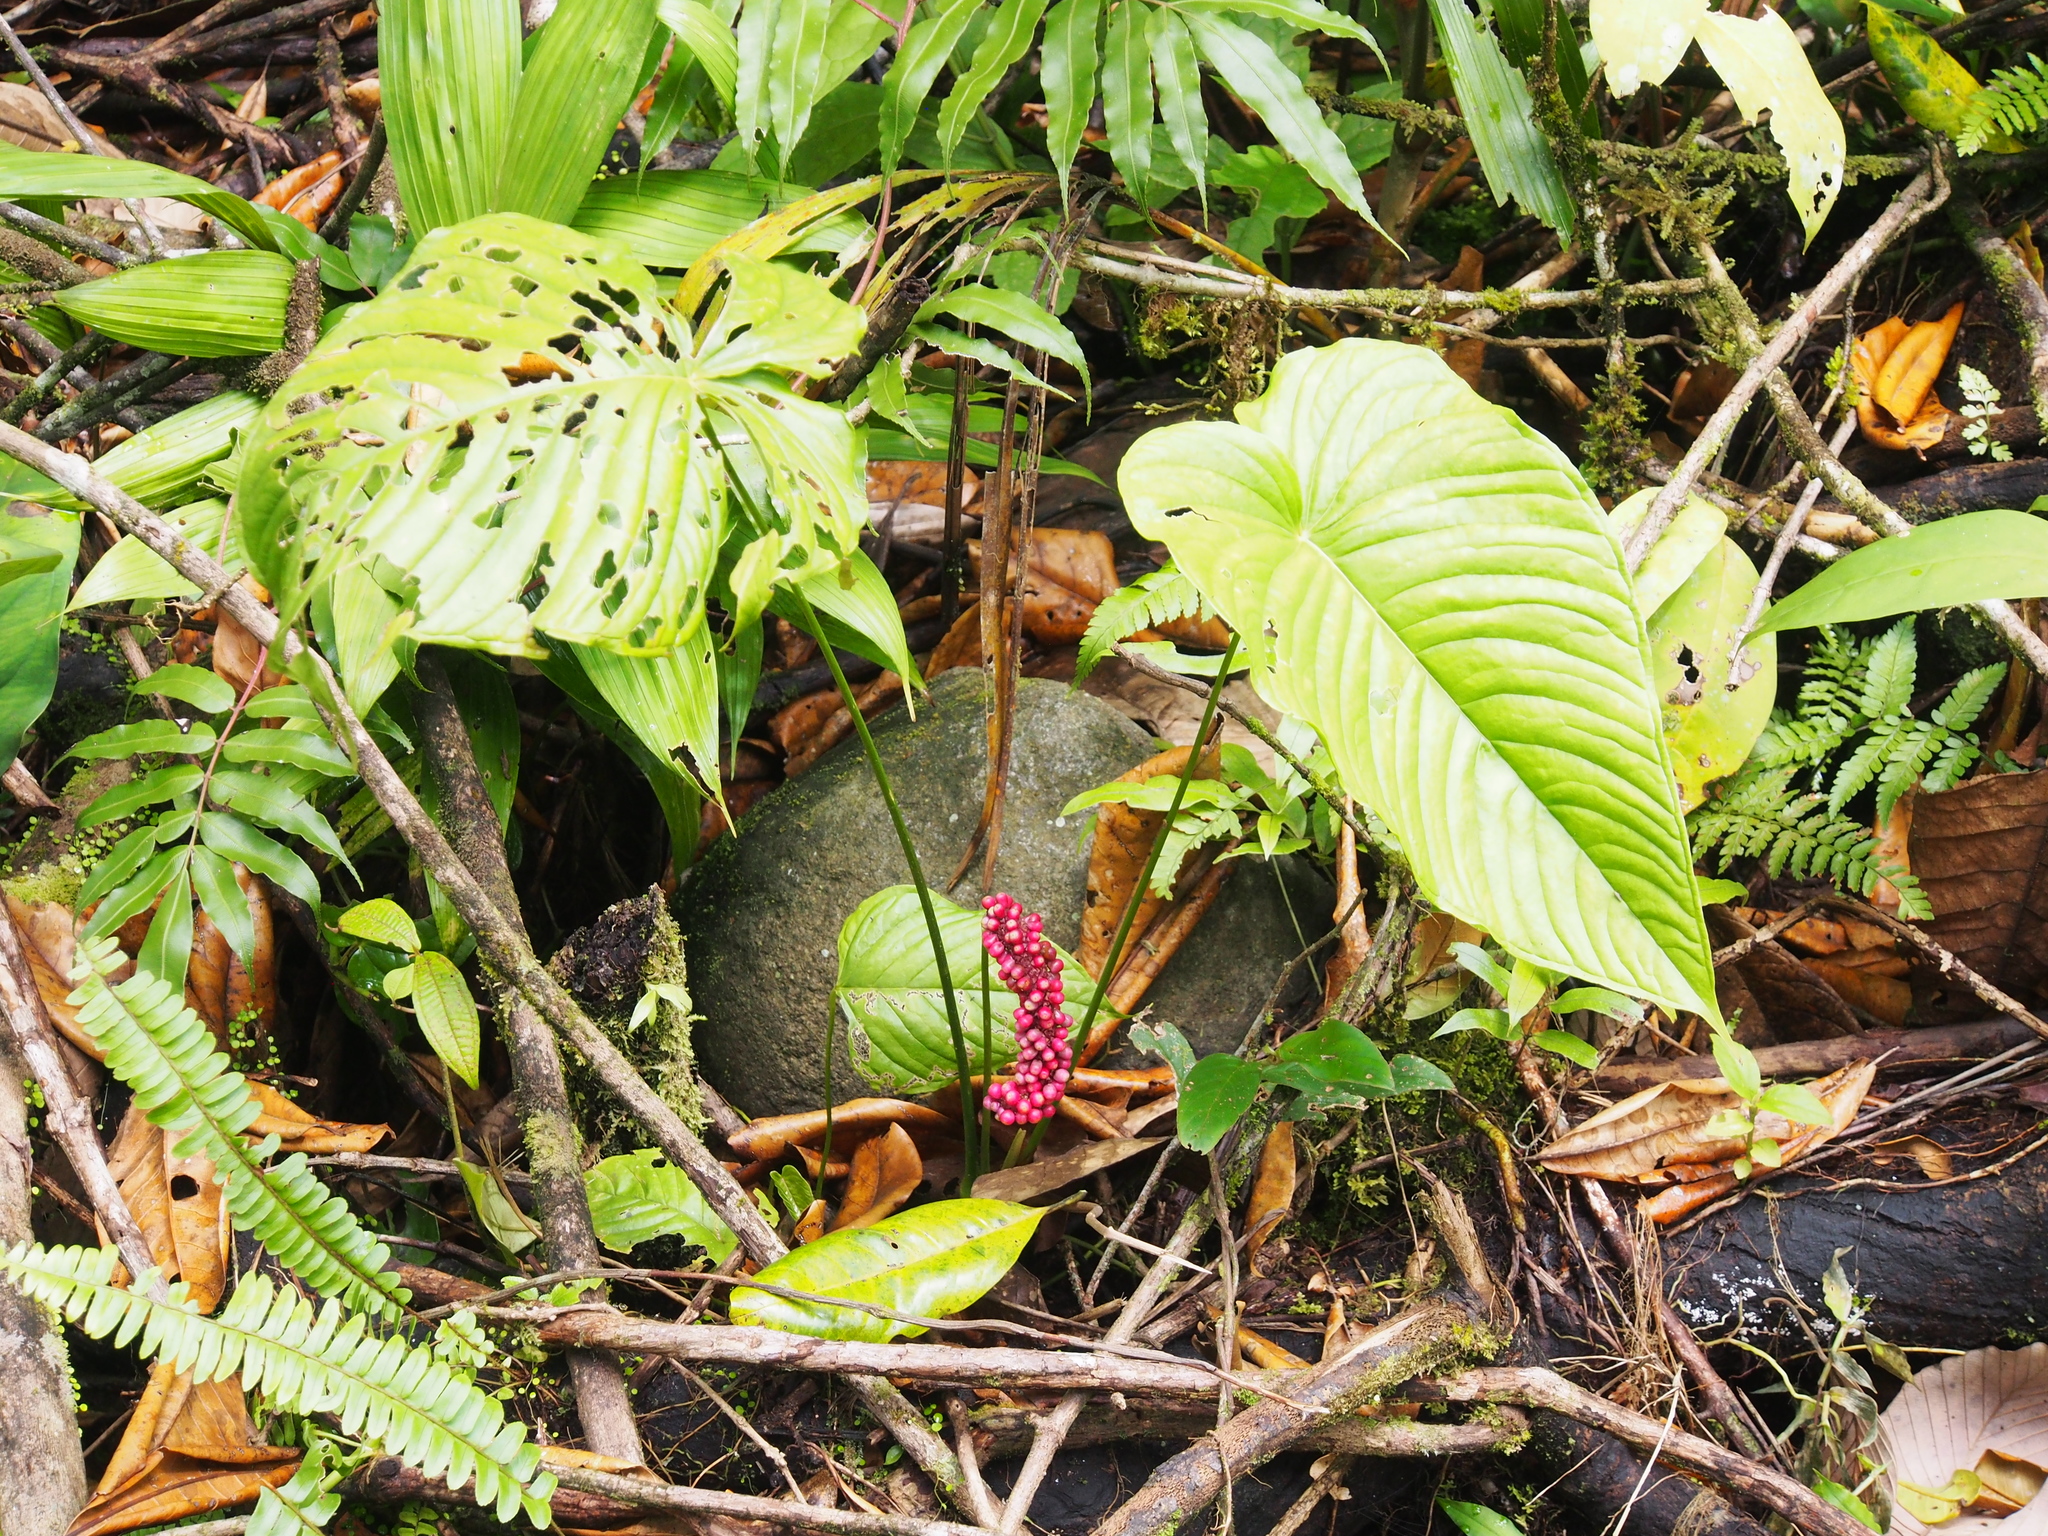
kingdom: Plantae
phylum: Tracheophyta
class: Liliopsida
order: Alismatales
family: Araceae
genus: Anthurium
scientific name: Anthurium cuspidatum
